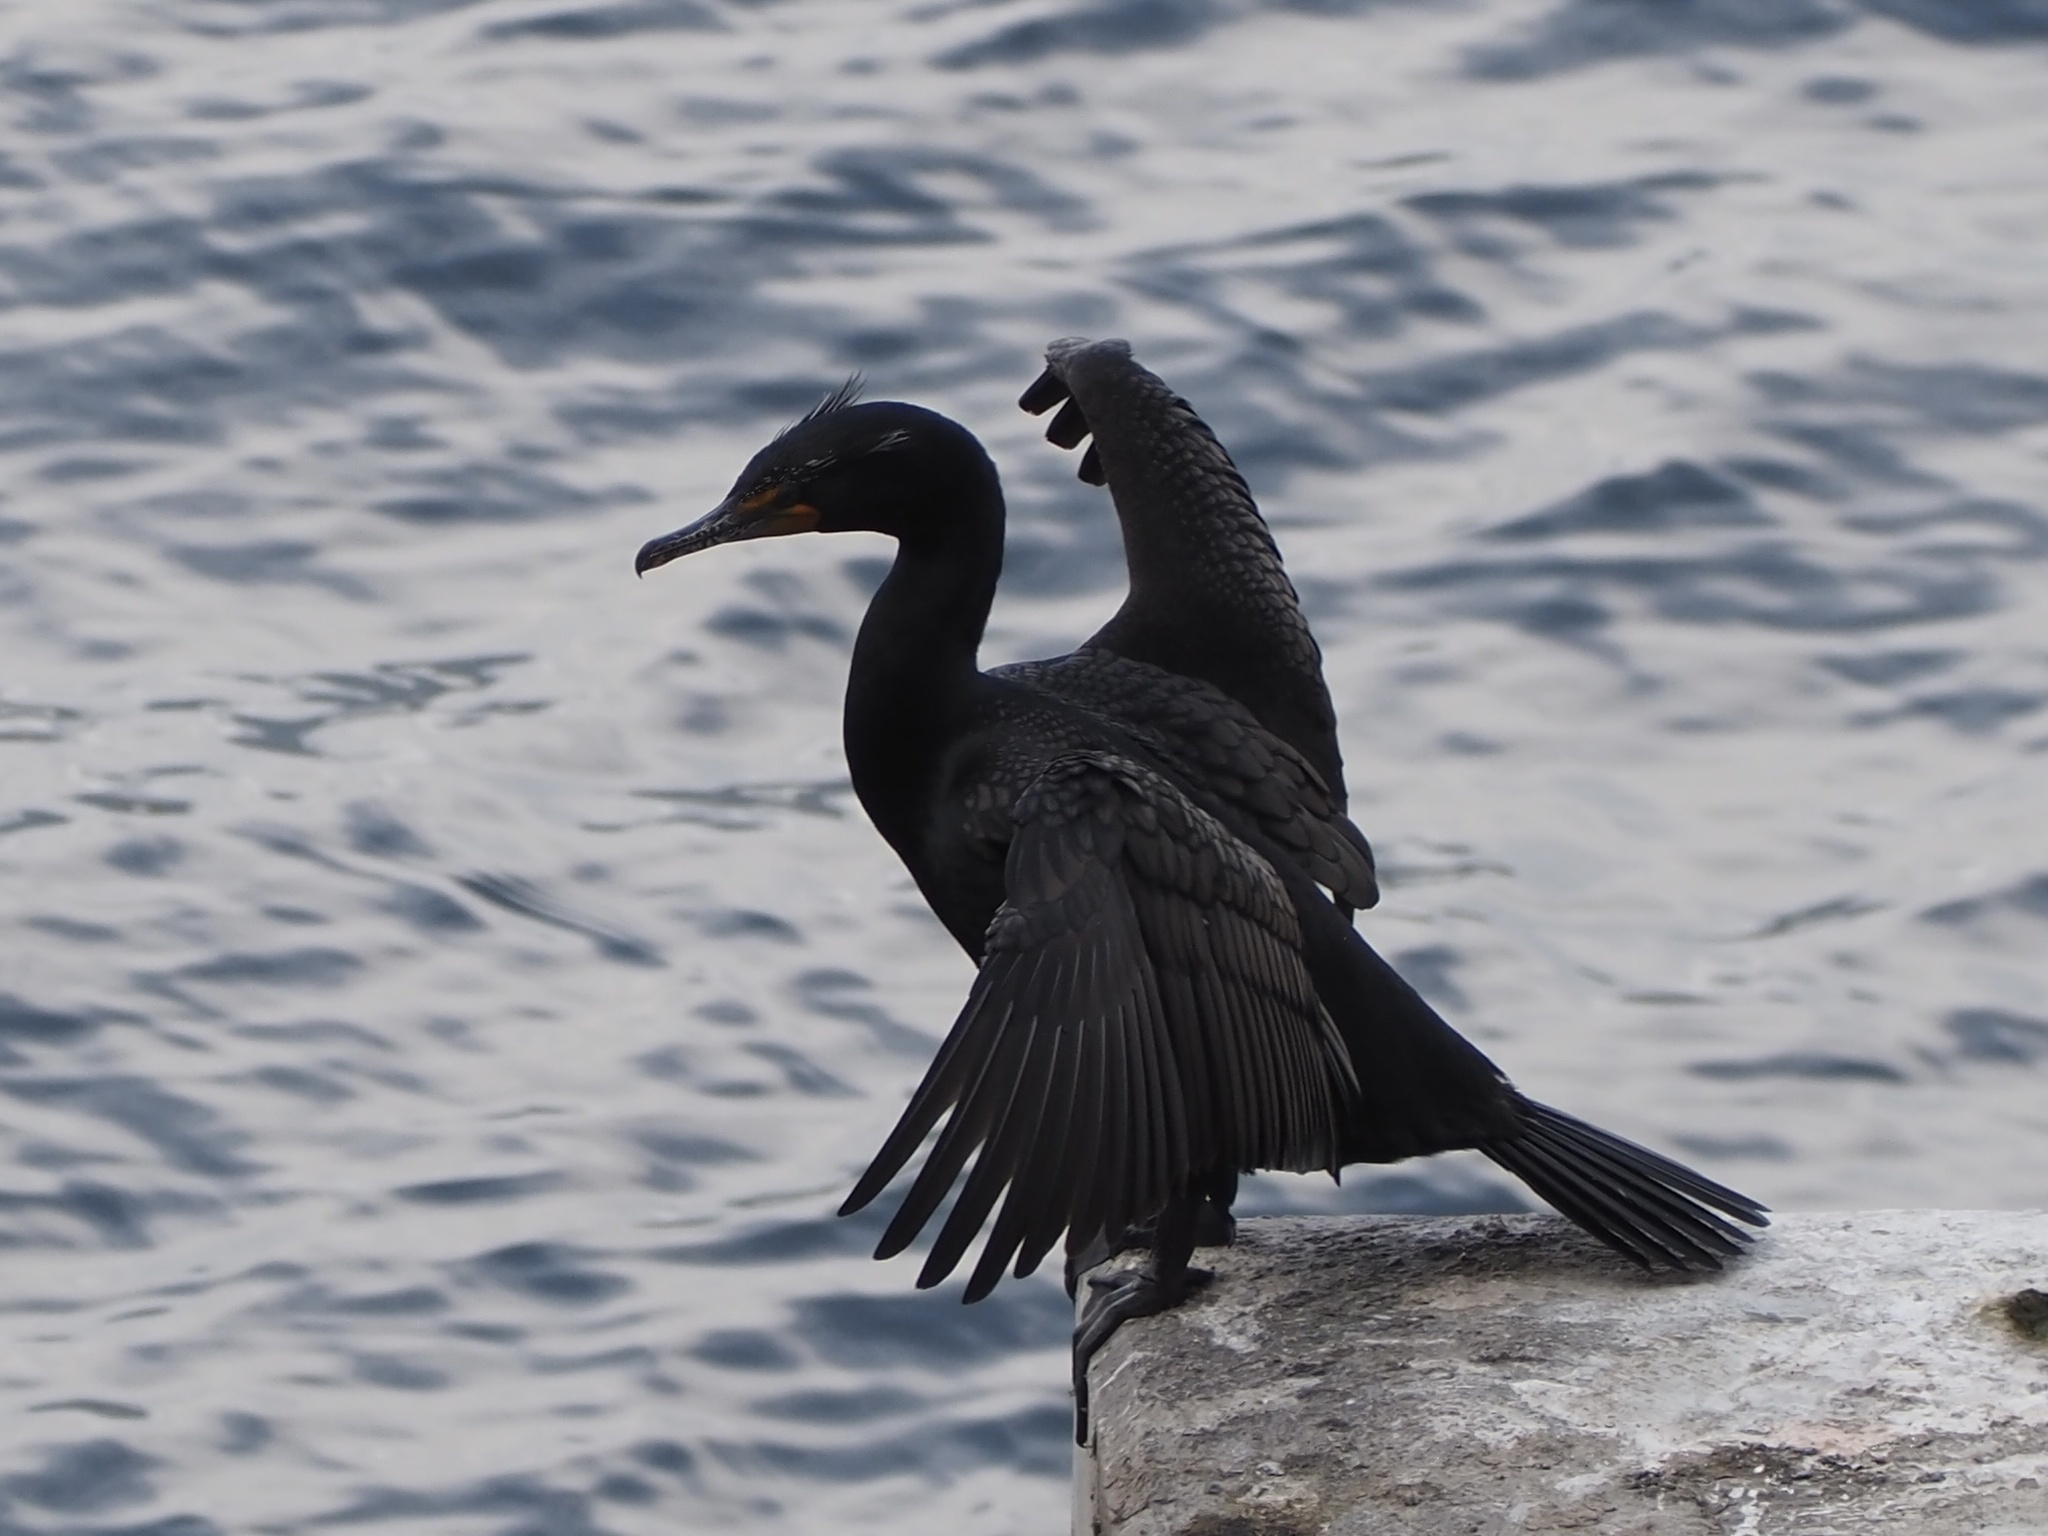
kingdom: Animalia
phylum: Chordata
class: Aves
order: Suliformes
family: Phalacrocoracidae
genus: Phalacrocorax
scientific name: Phalacrocorax auritus
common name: Double-crested cormorant
